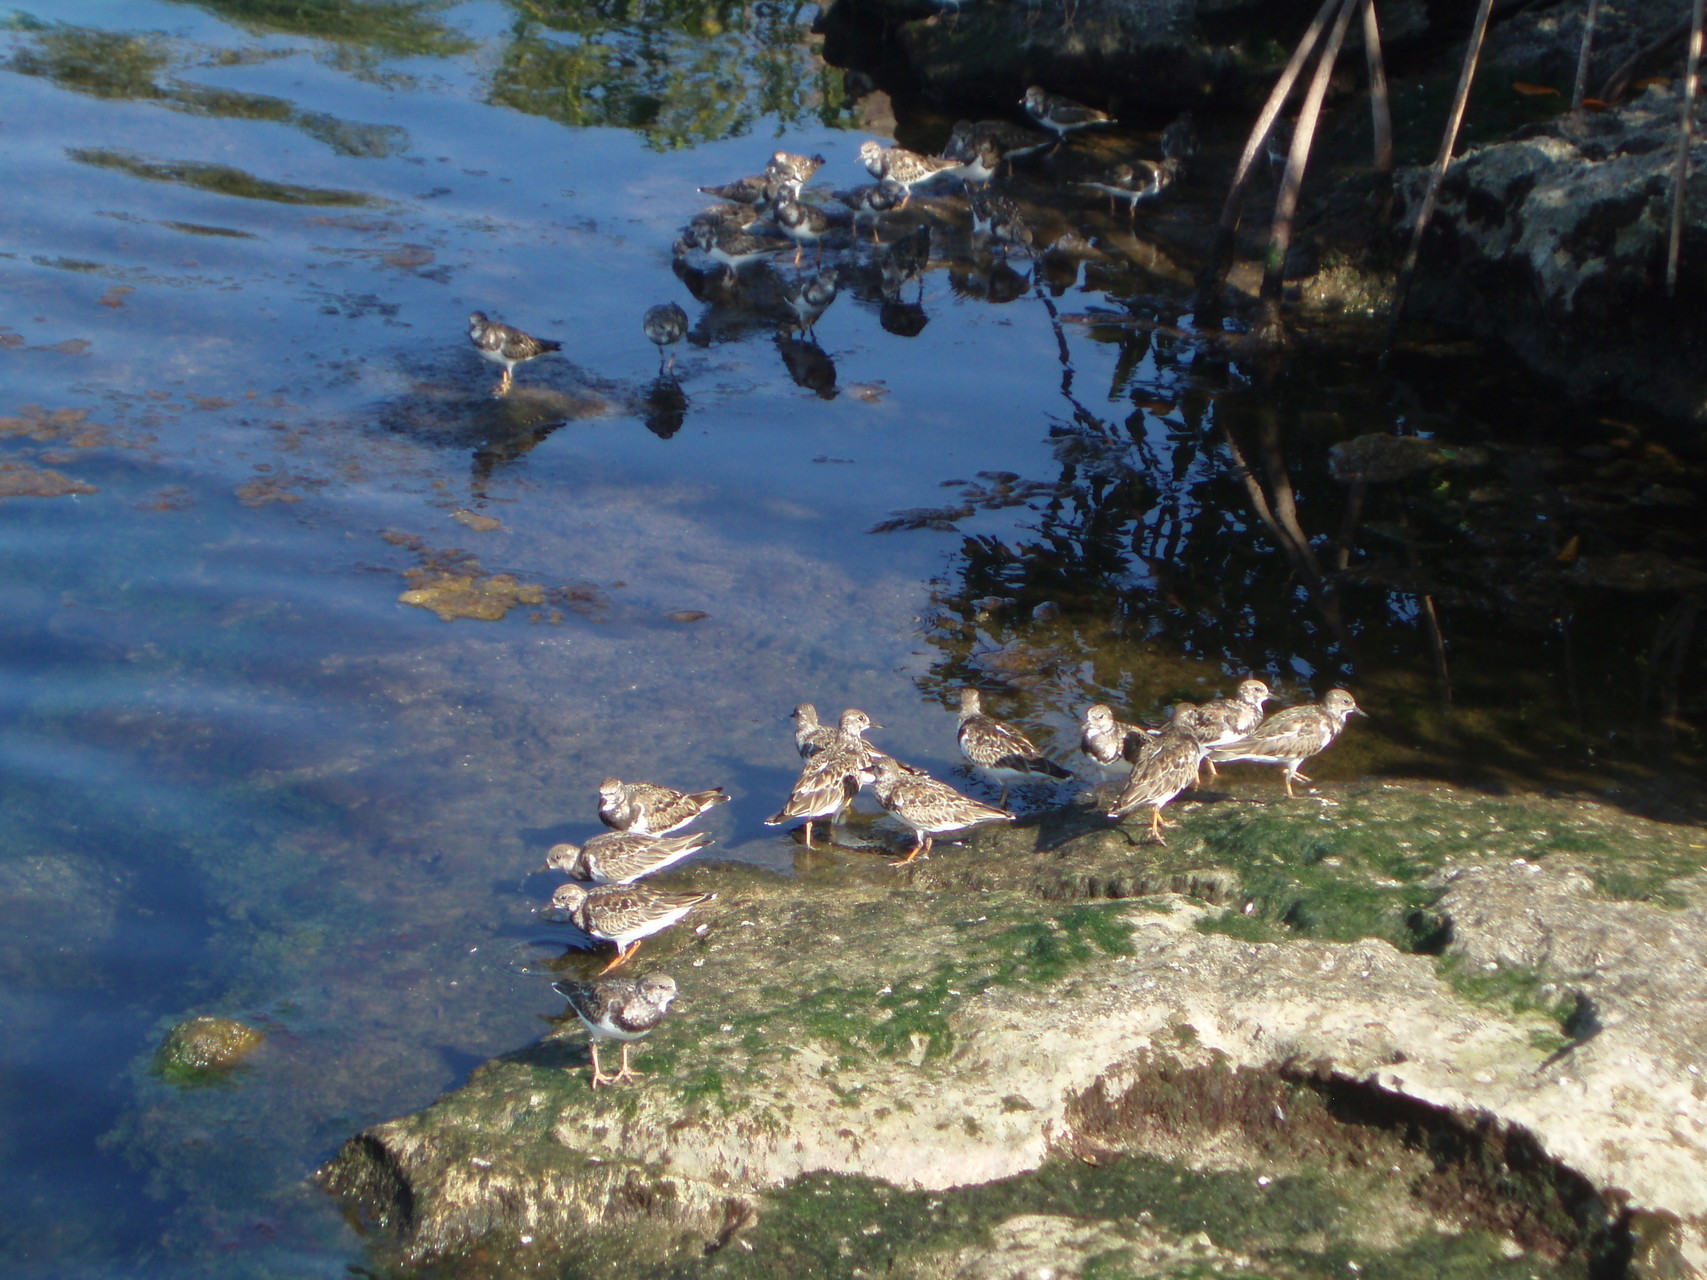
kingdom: Animalia
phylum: Chordata
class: Aves
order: Charadriiformes
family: Scolopacidae
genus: Arenaria
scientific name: Arenaria interpres
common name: Ruddy turnstone
